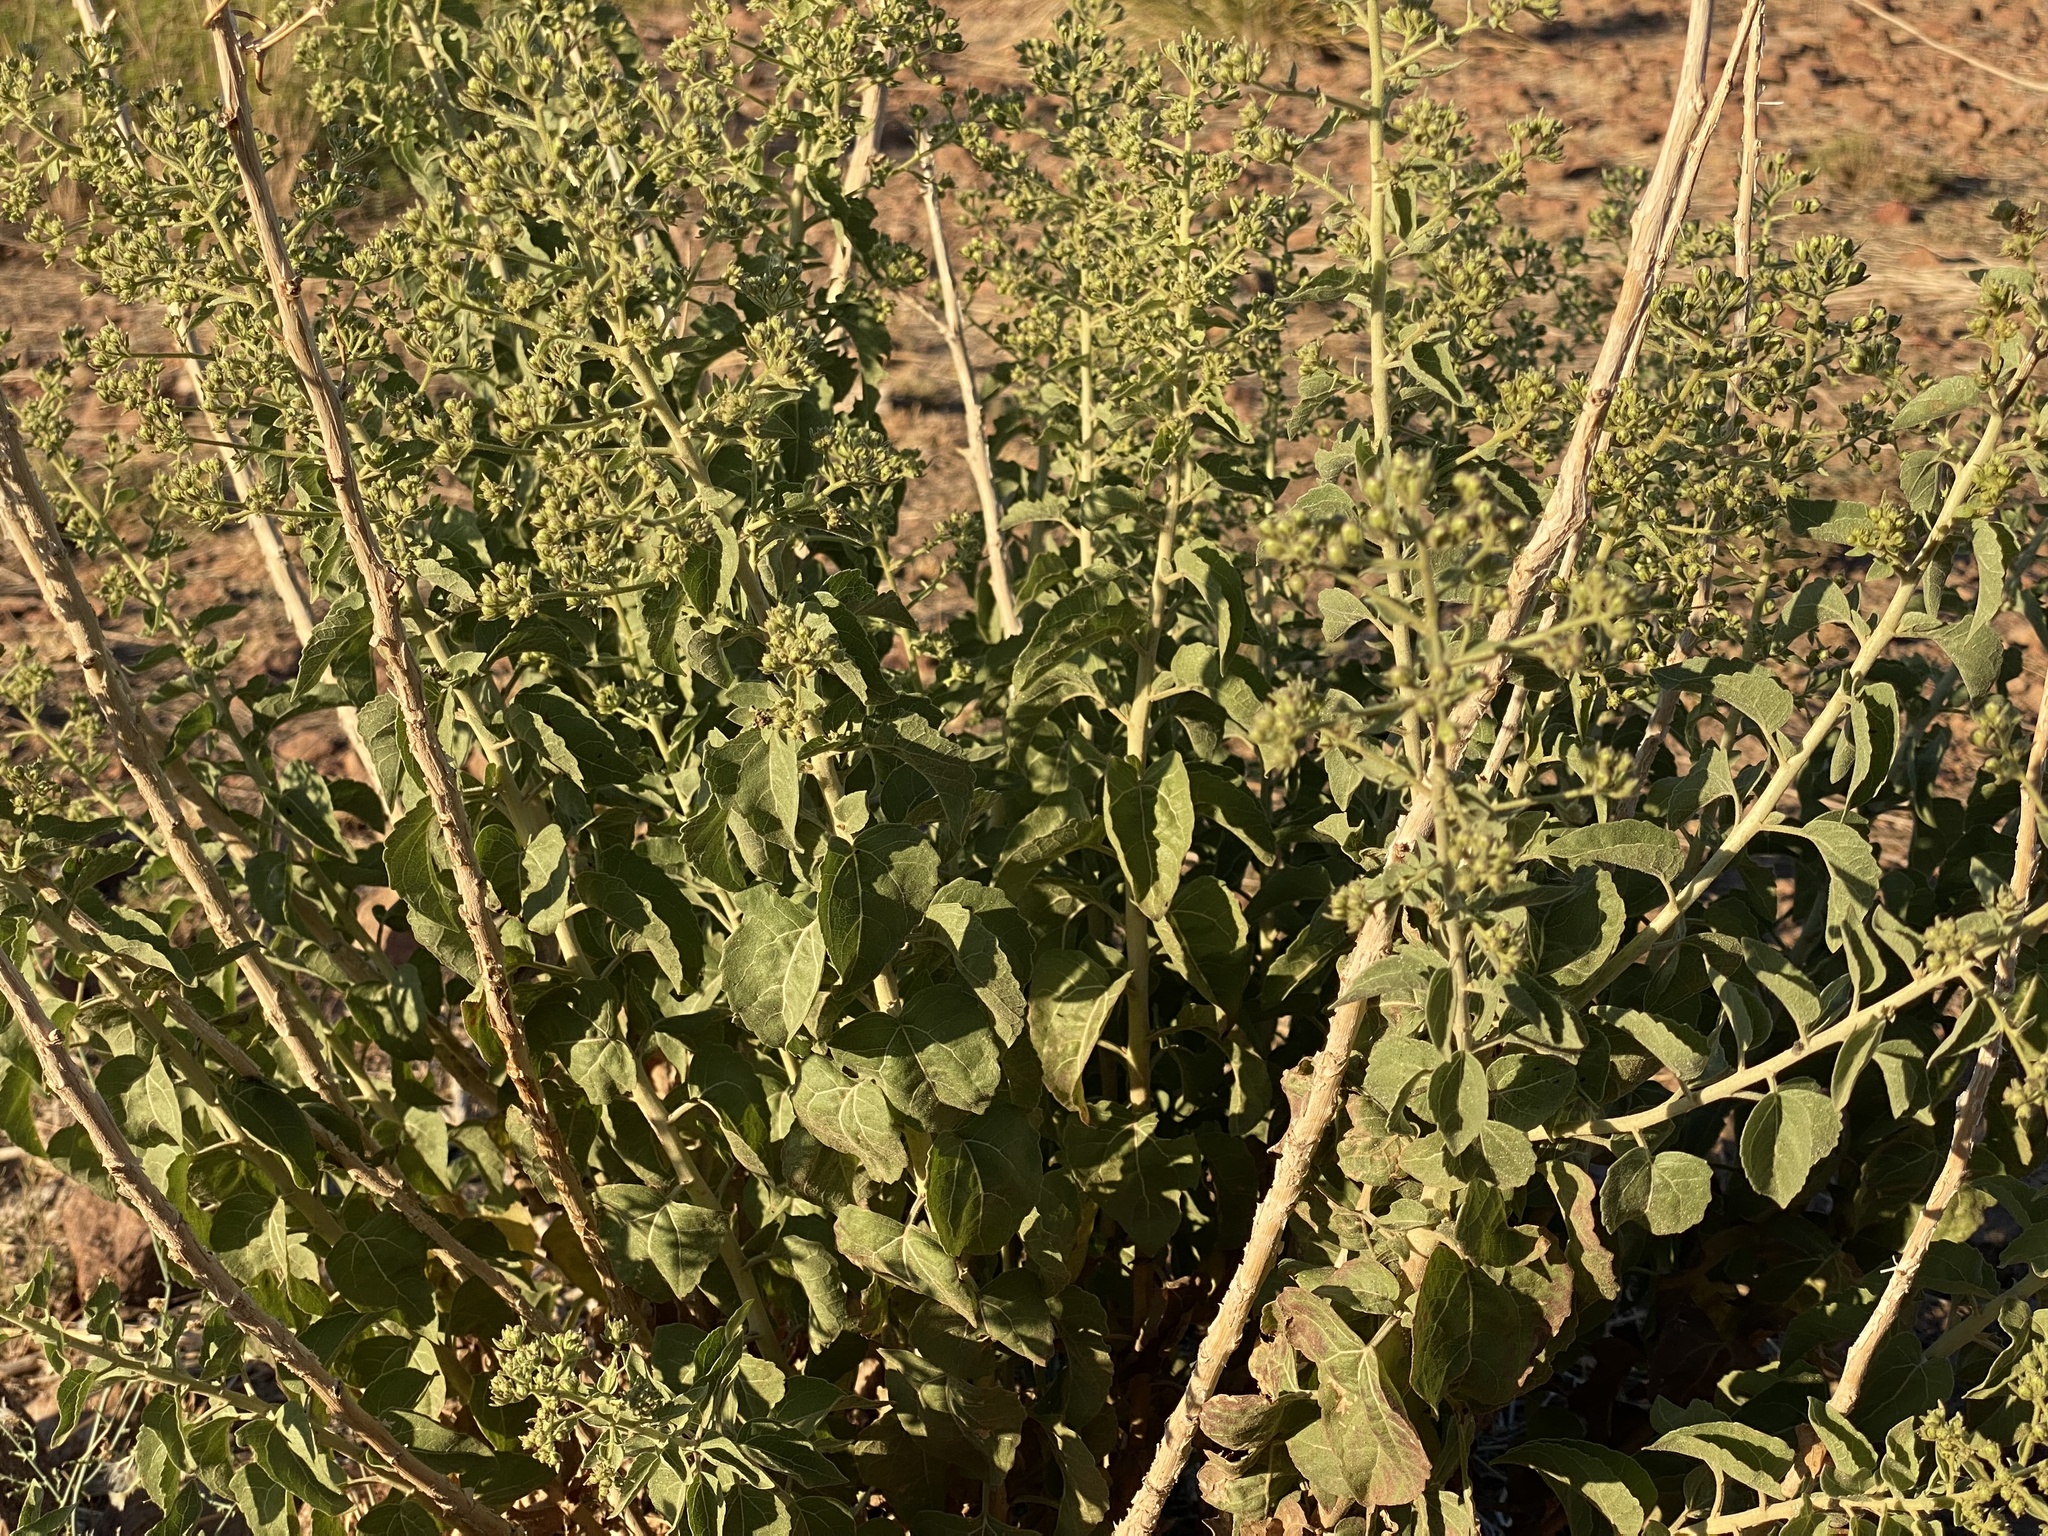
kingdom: Plantae
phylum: Tracheophyta
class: Magnoliopsida
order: Asterales
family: Asteraceae
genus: Brickellia
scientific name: Brickellia floribunda
